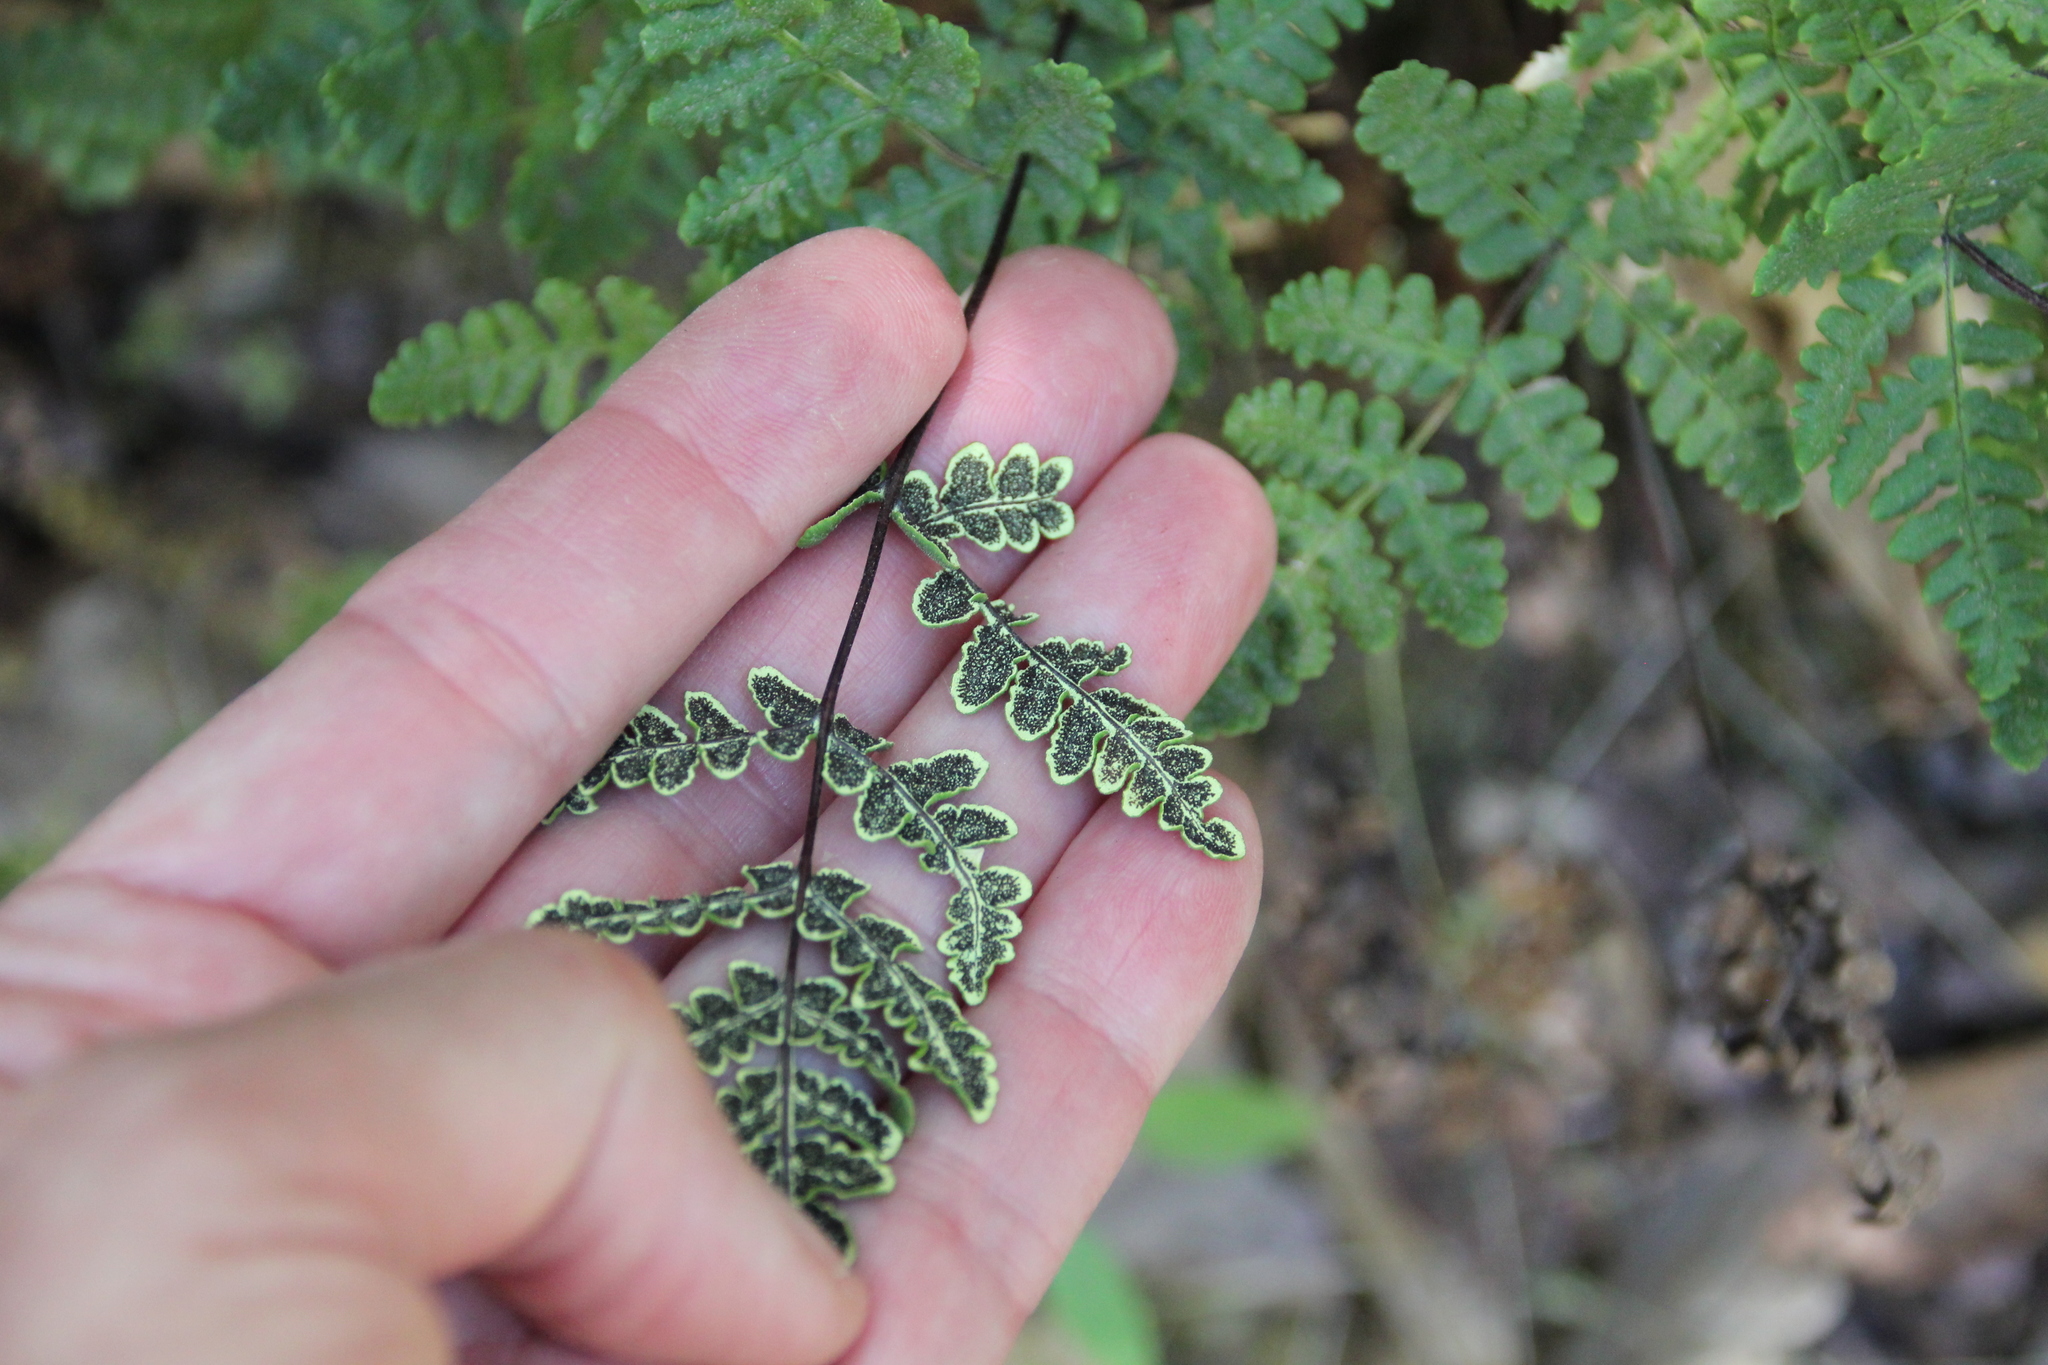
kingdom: Plantae
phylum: Tracheophyta
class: Polypodiopsida
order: Polypodiales
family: Pteridaceae
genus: Pentagramma
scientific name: Pentagramma triangularis
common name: Gold fern
